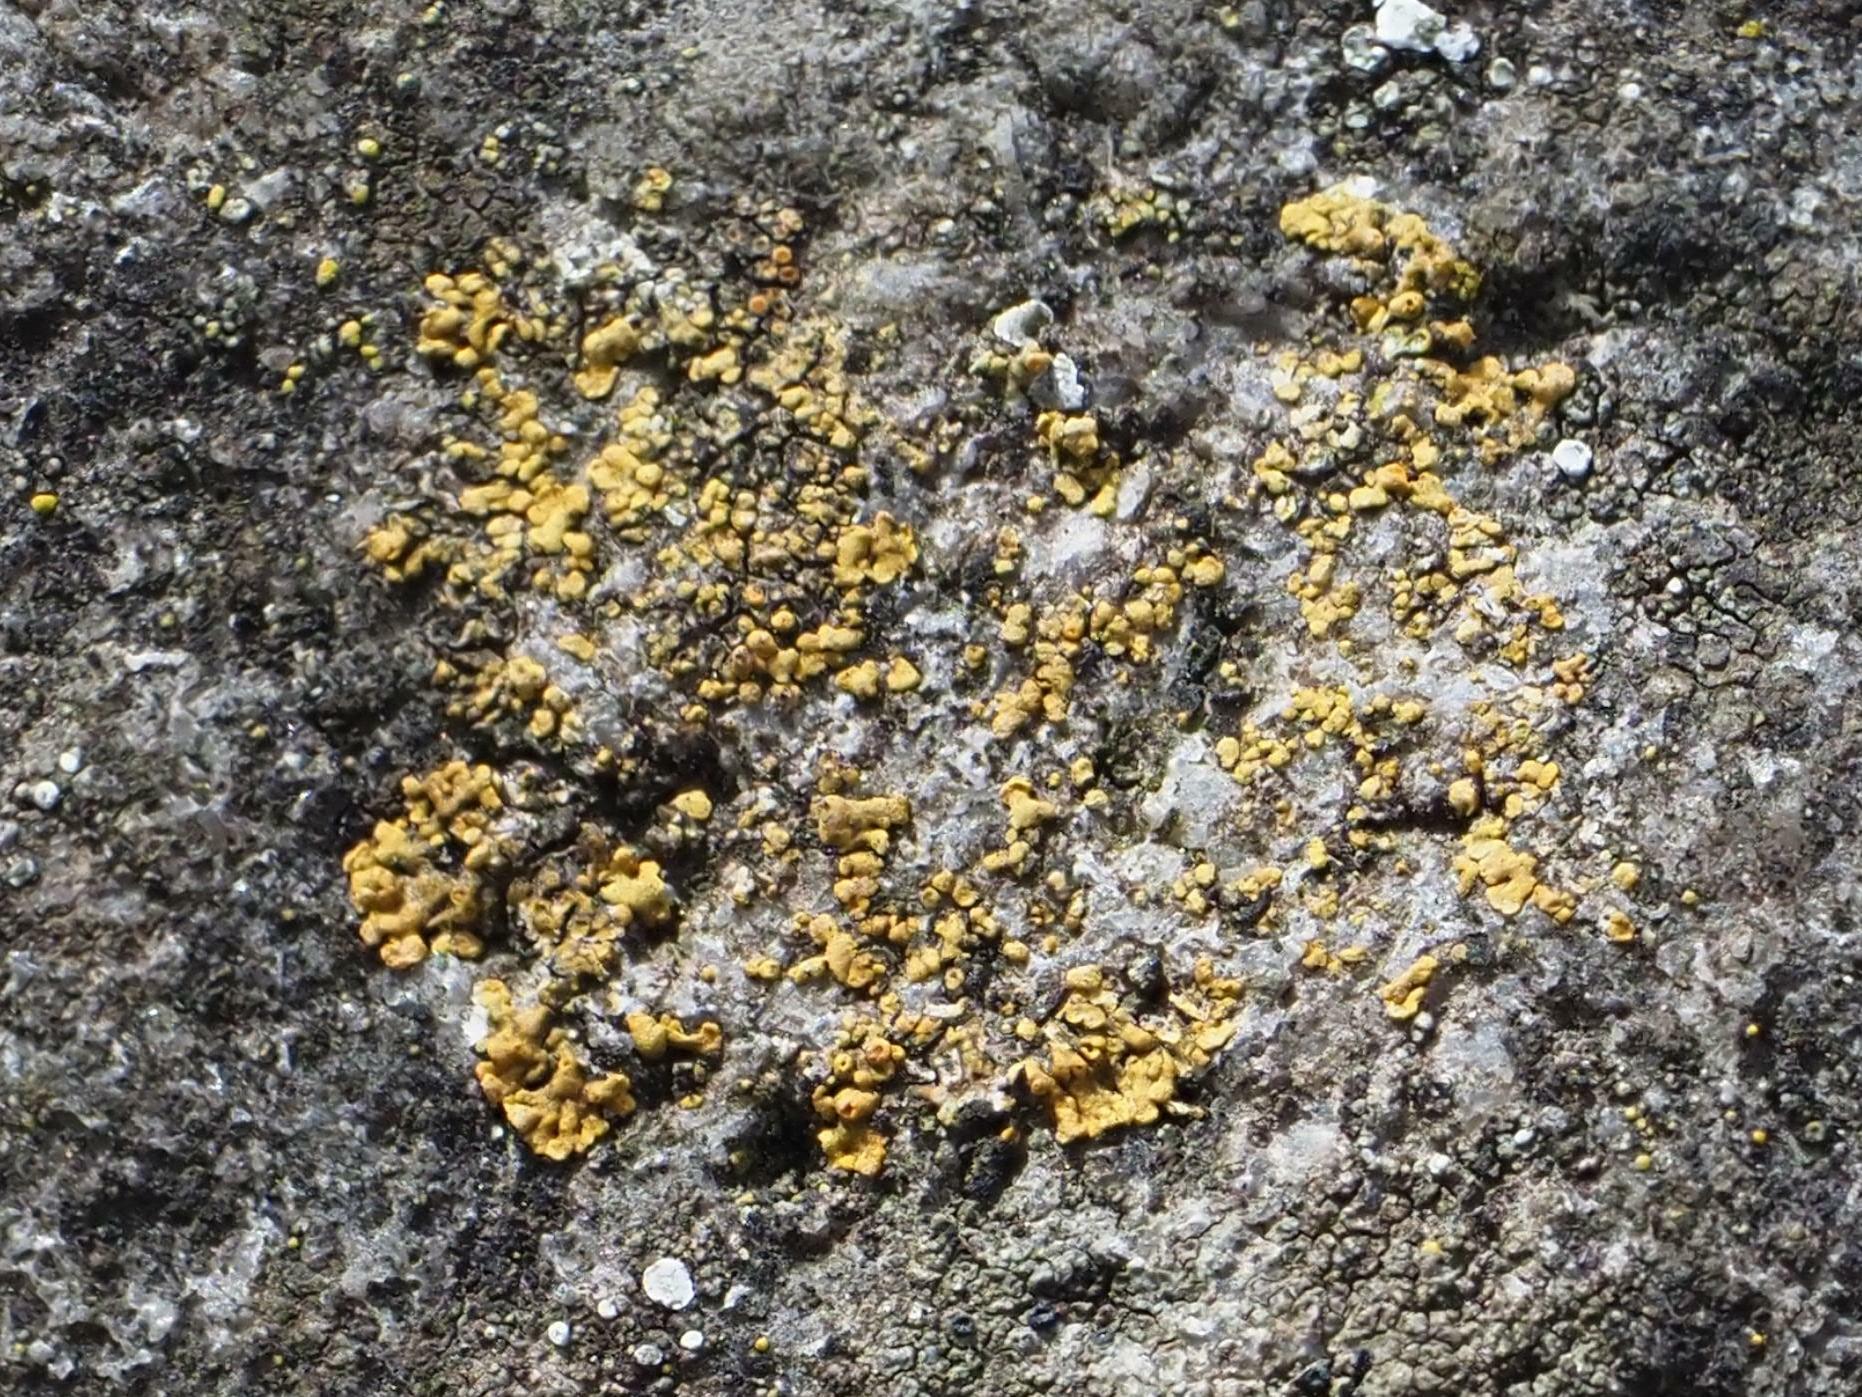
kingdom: Fungi
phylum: Ascomycota
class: Lecanoromycetes
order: Teloschistales
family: Teloschistaceae
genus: Calogaya
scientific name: Calogaya decipiens
